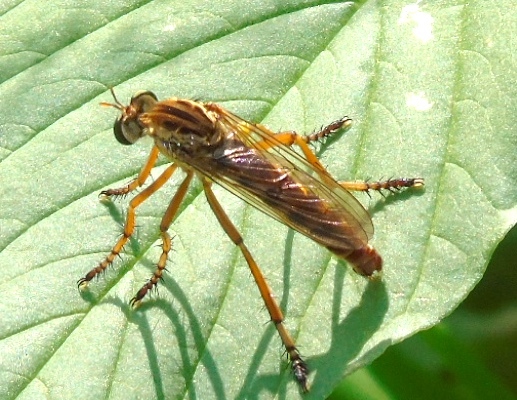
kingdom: Animalia
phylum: Arthropoda
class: Insecta
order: Diptera
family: Asilidae
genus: Diogmites
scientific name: Diogmites
